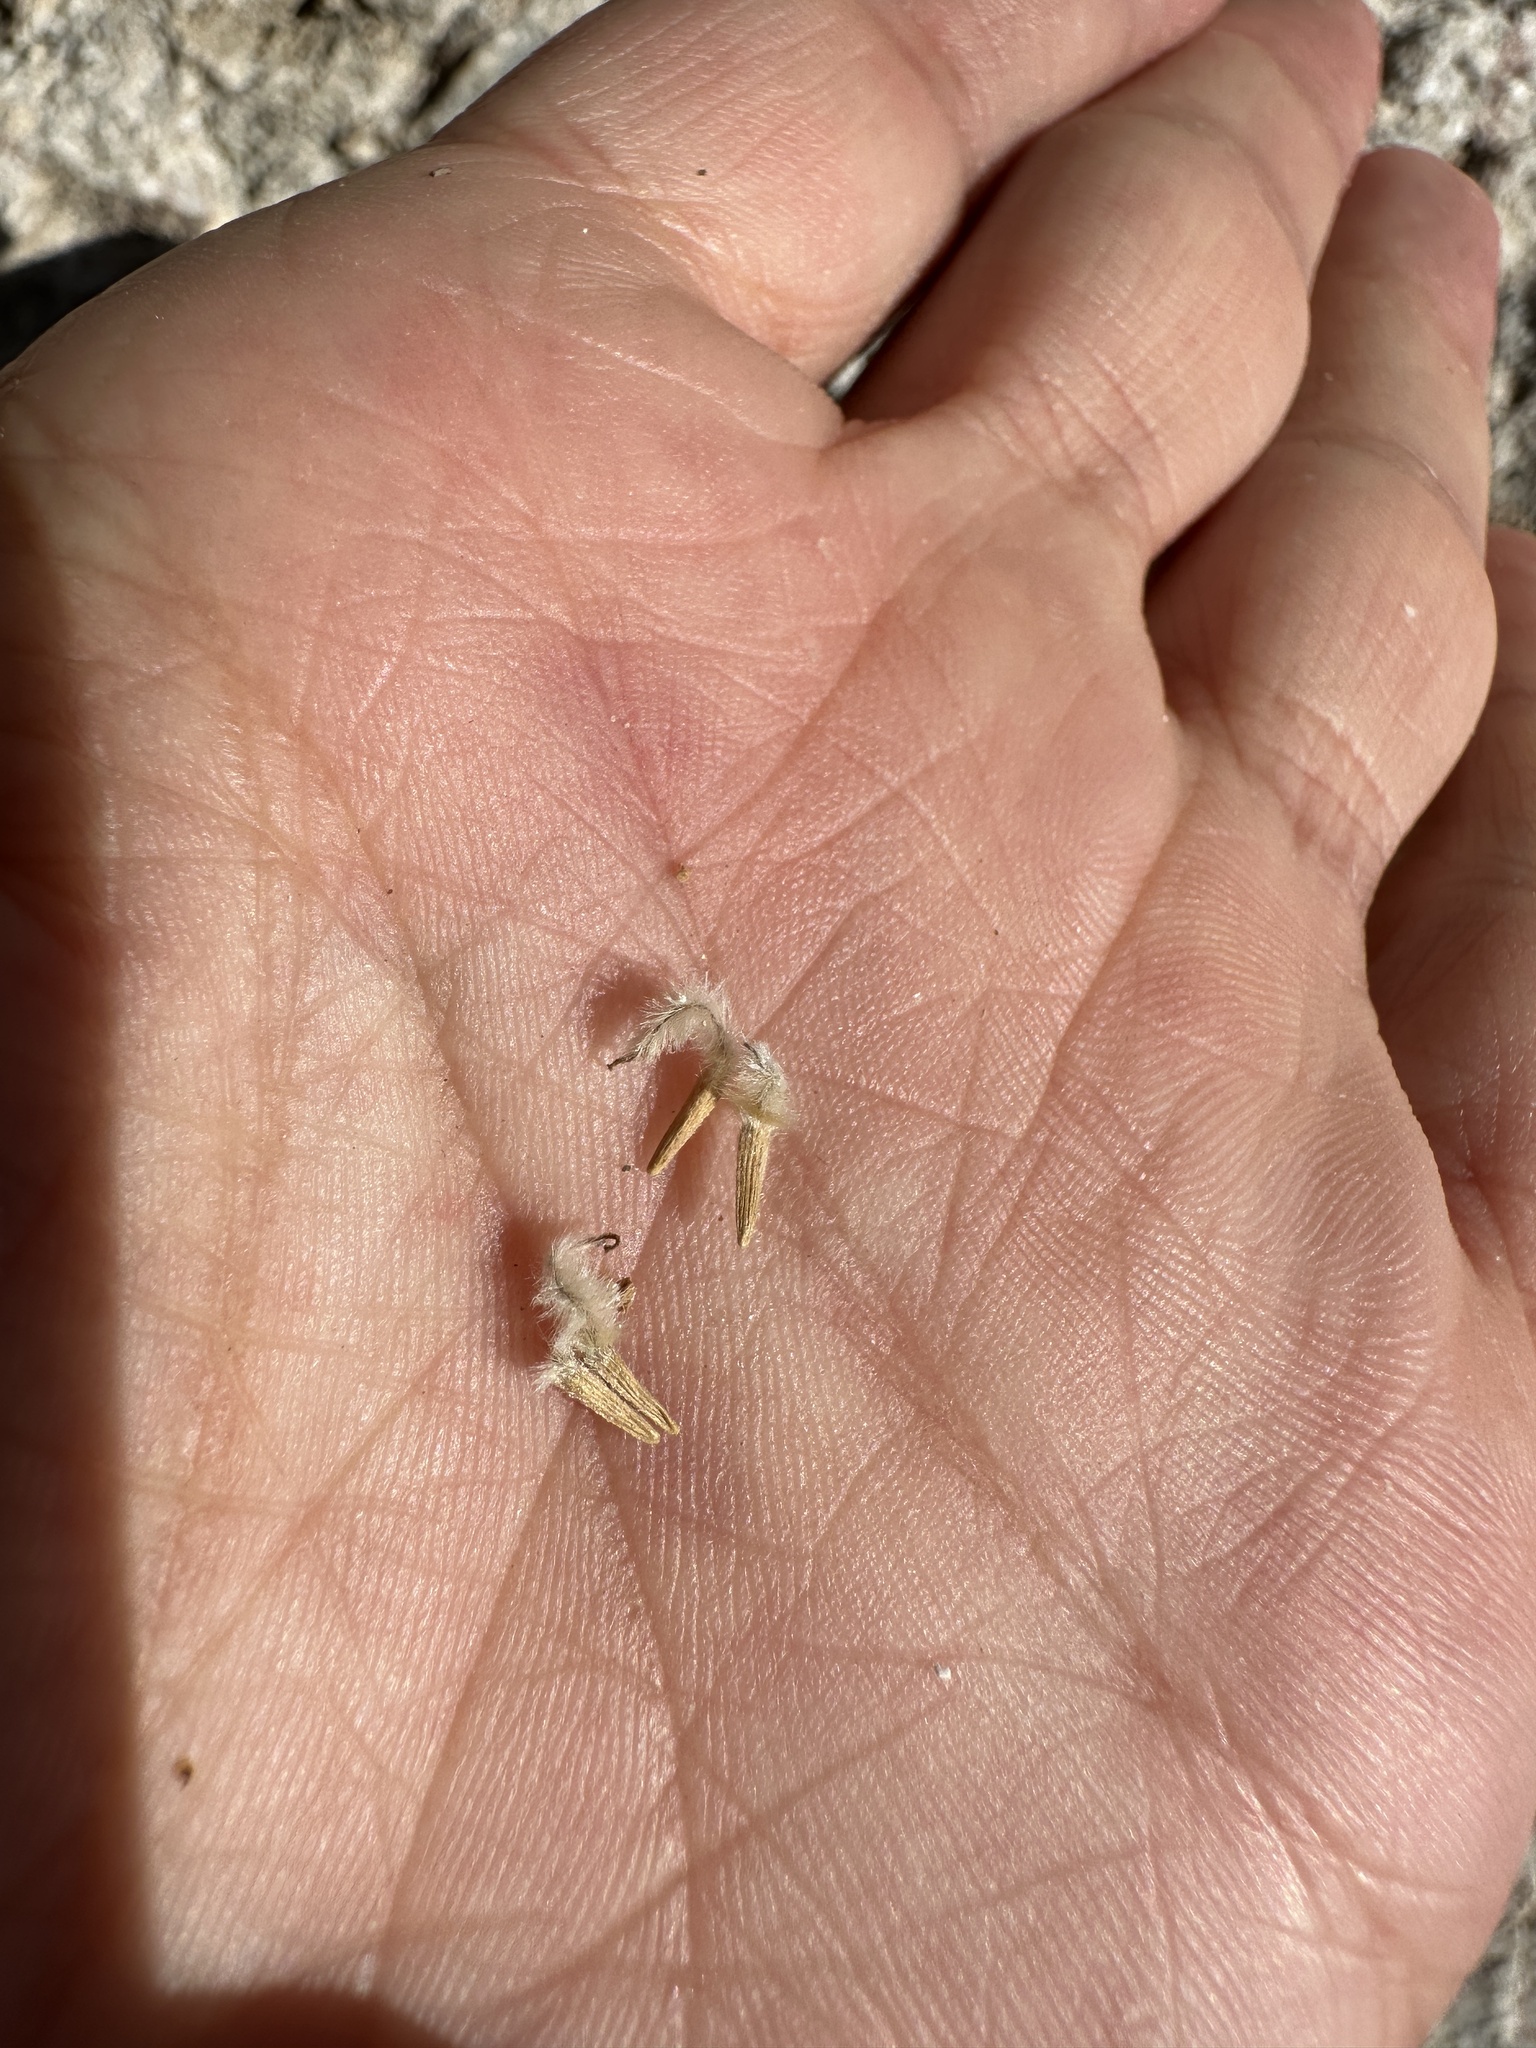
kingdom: Plantae
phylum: Tracheophyta
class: Magnoliopsida
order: Rosales
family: Rosaceae
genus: Purshia
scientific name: Purshia stansburiana
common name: Stansbury's cliffrose
